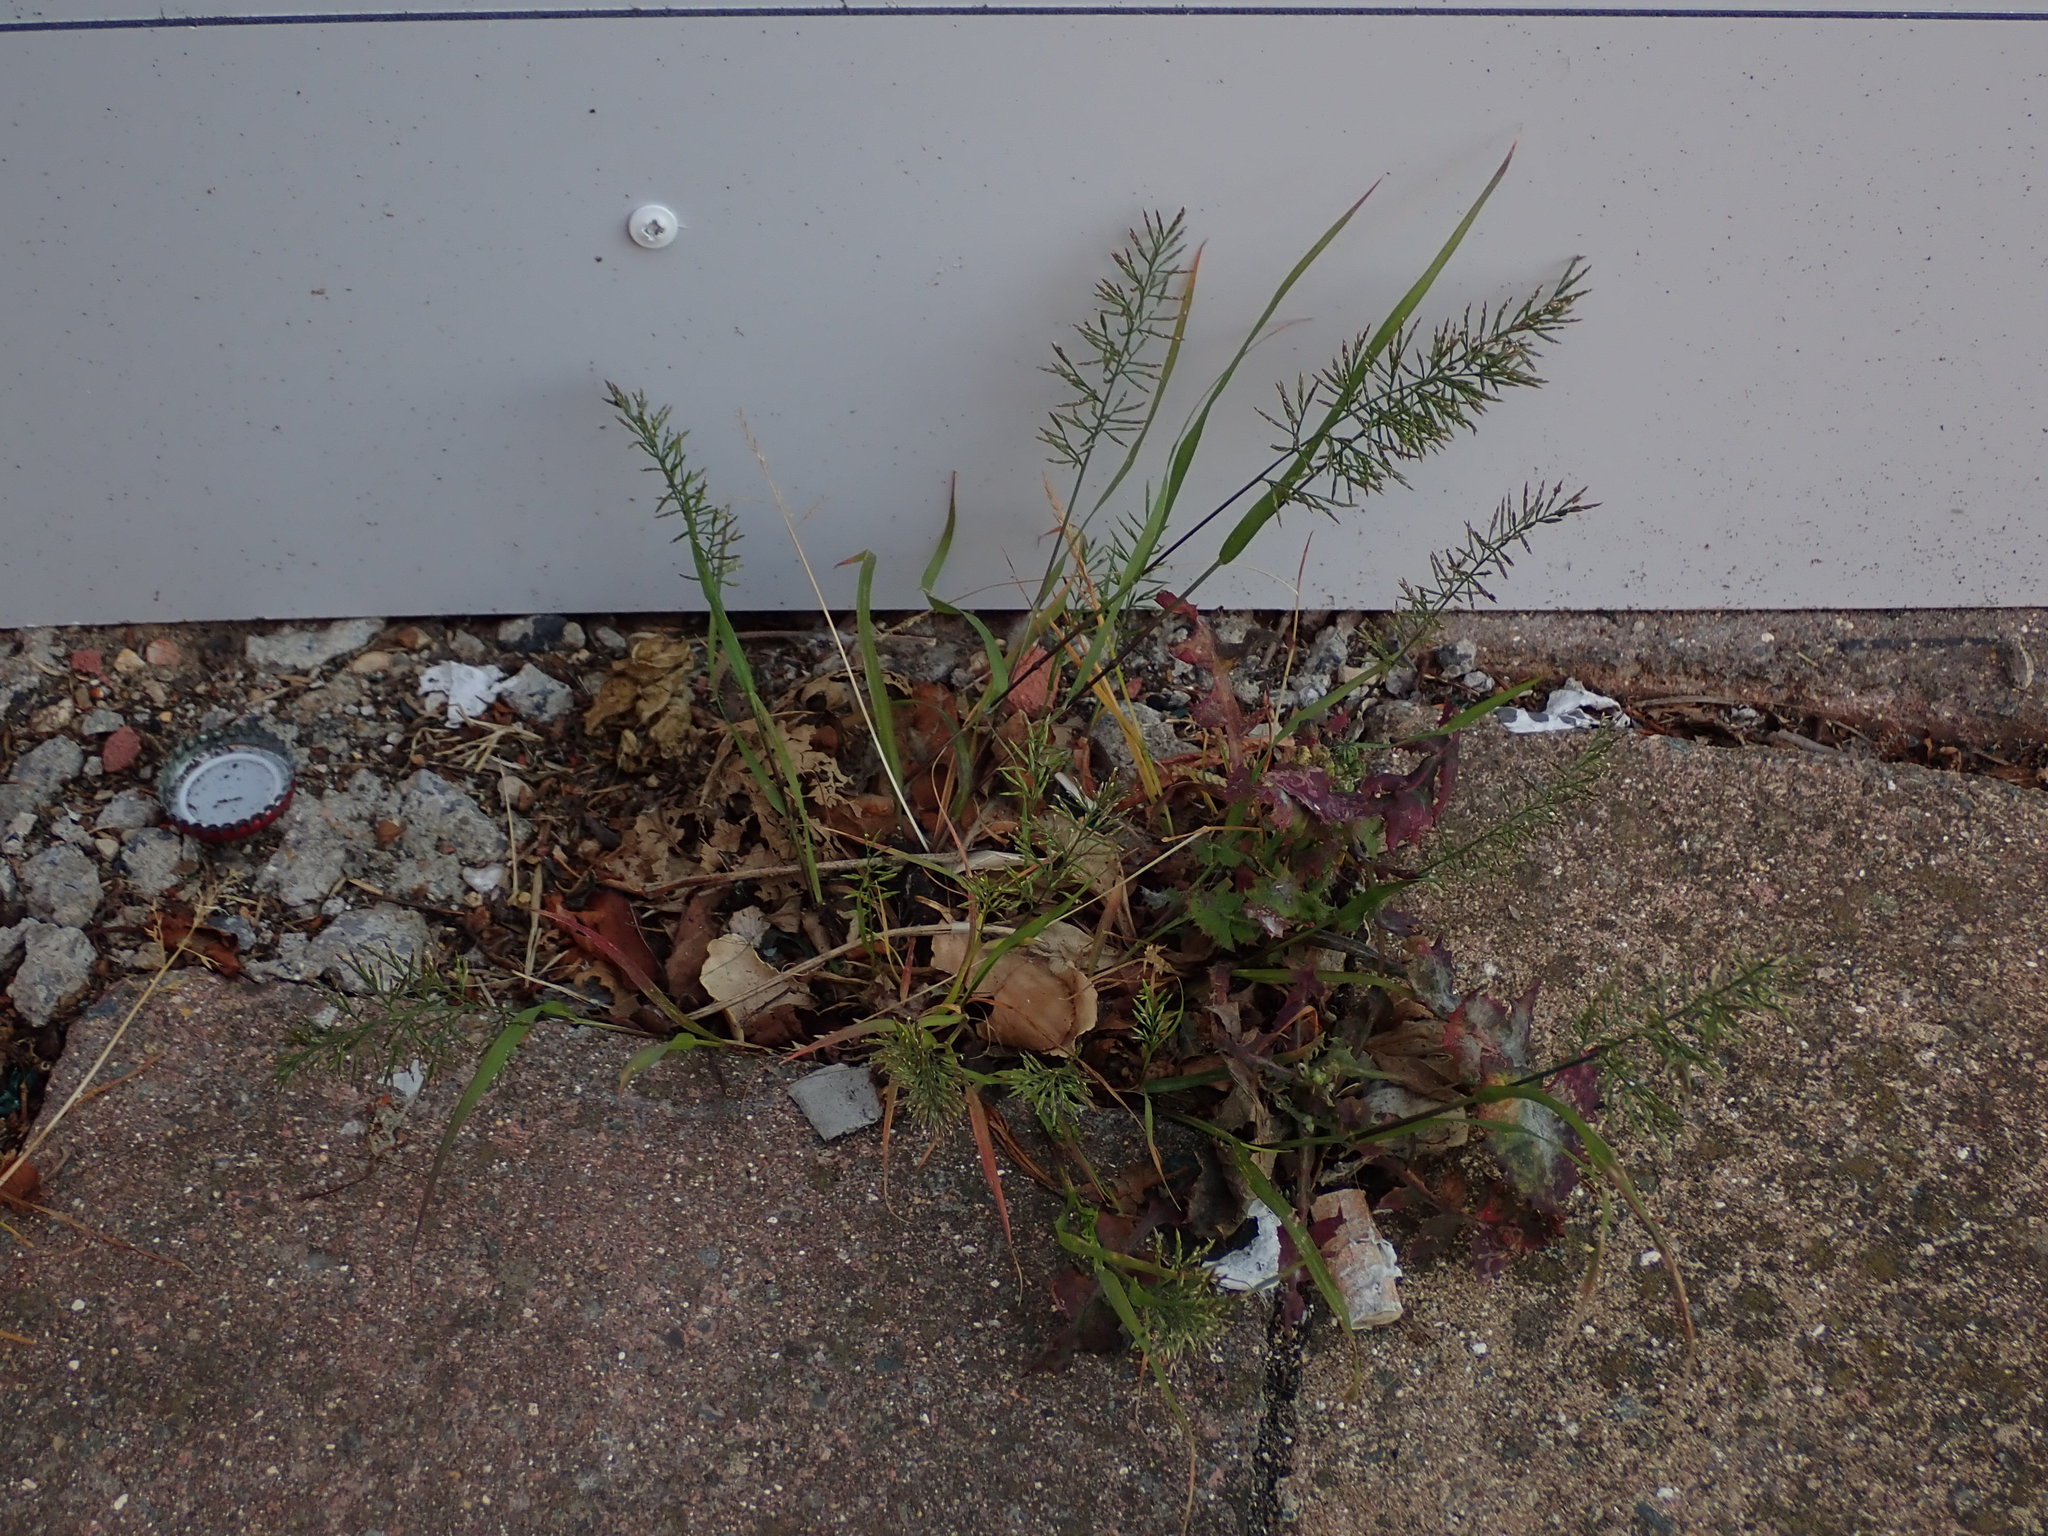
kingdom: Plantae
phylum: Tracheophyta
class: Liliopsida
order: Poales
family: Poaceae
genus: Catapodium
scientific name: Catapodium rigidum
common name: Fern-grass
